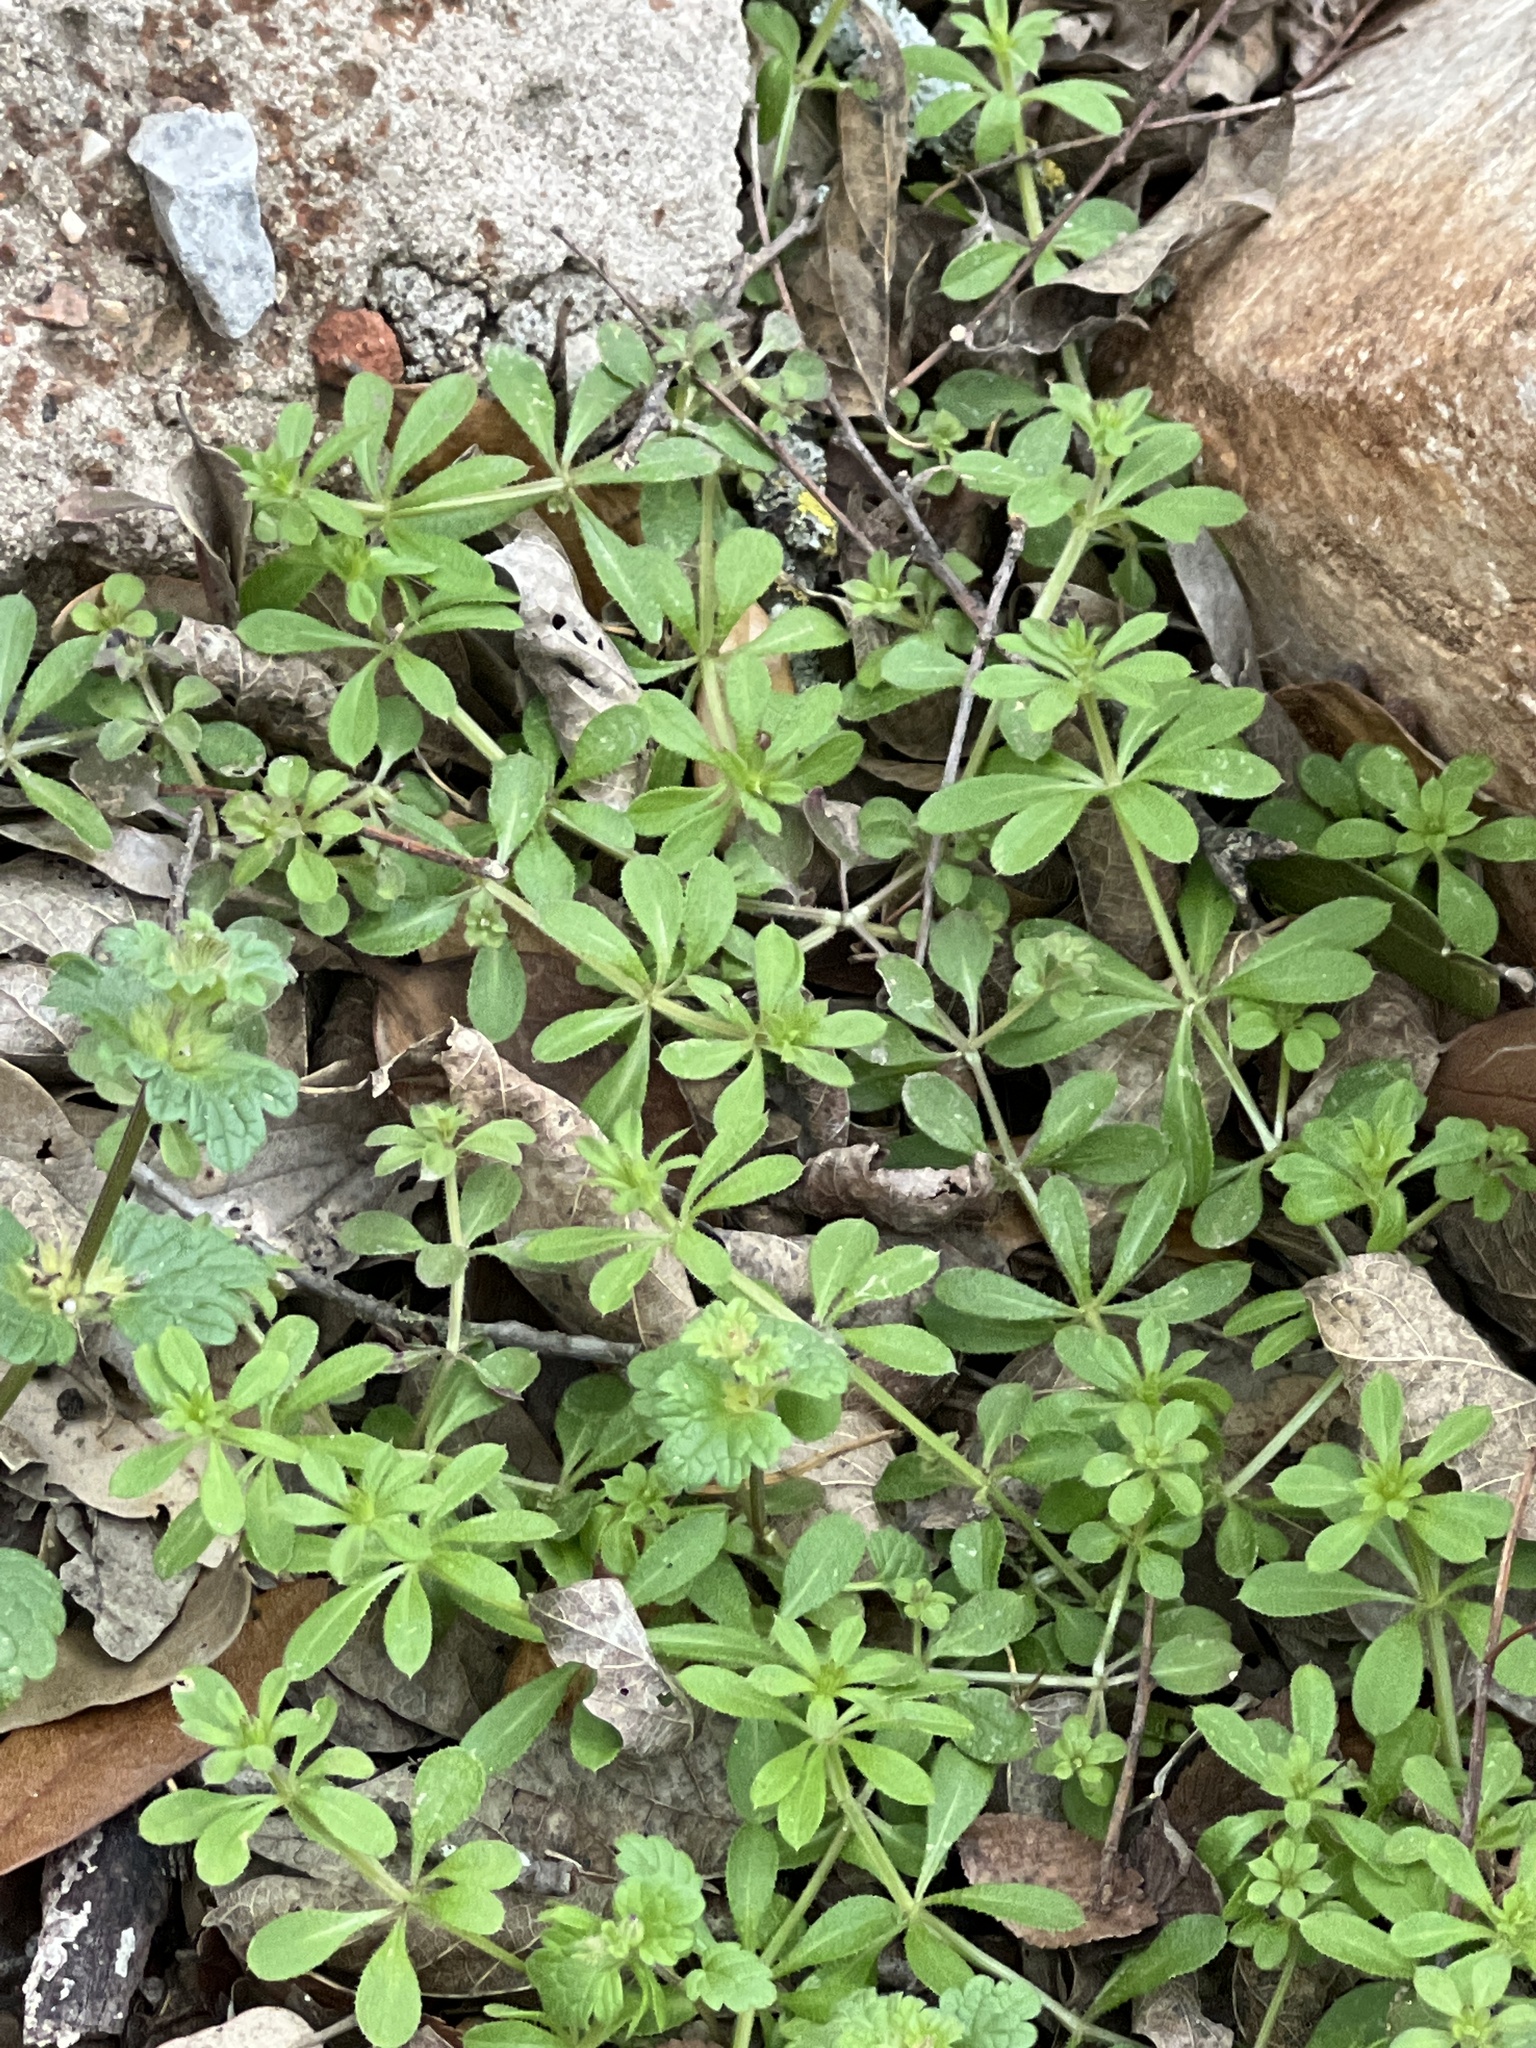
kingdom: Plantae
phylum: Tracheophyta
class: Magnoliopsida
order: Gentianales
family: Rubiaceae
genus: Galium
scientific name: Galium aparine
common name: Cleavers
